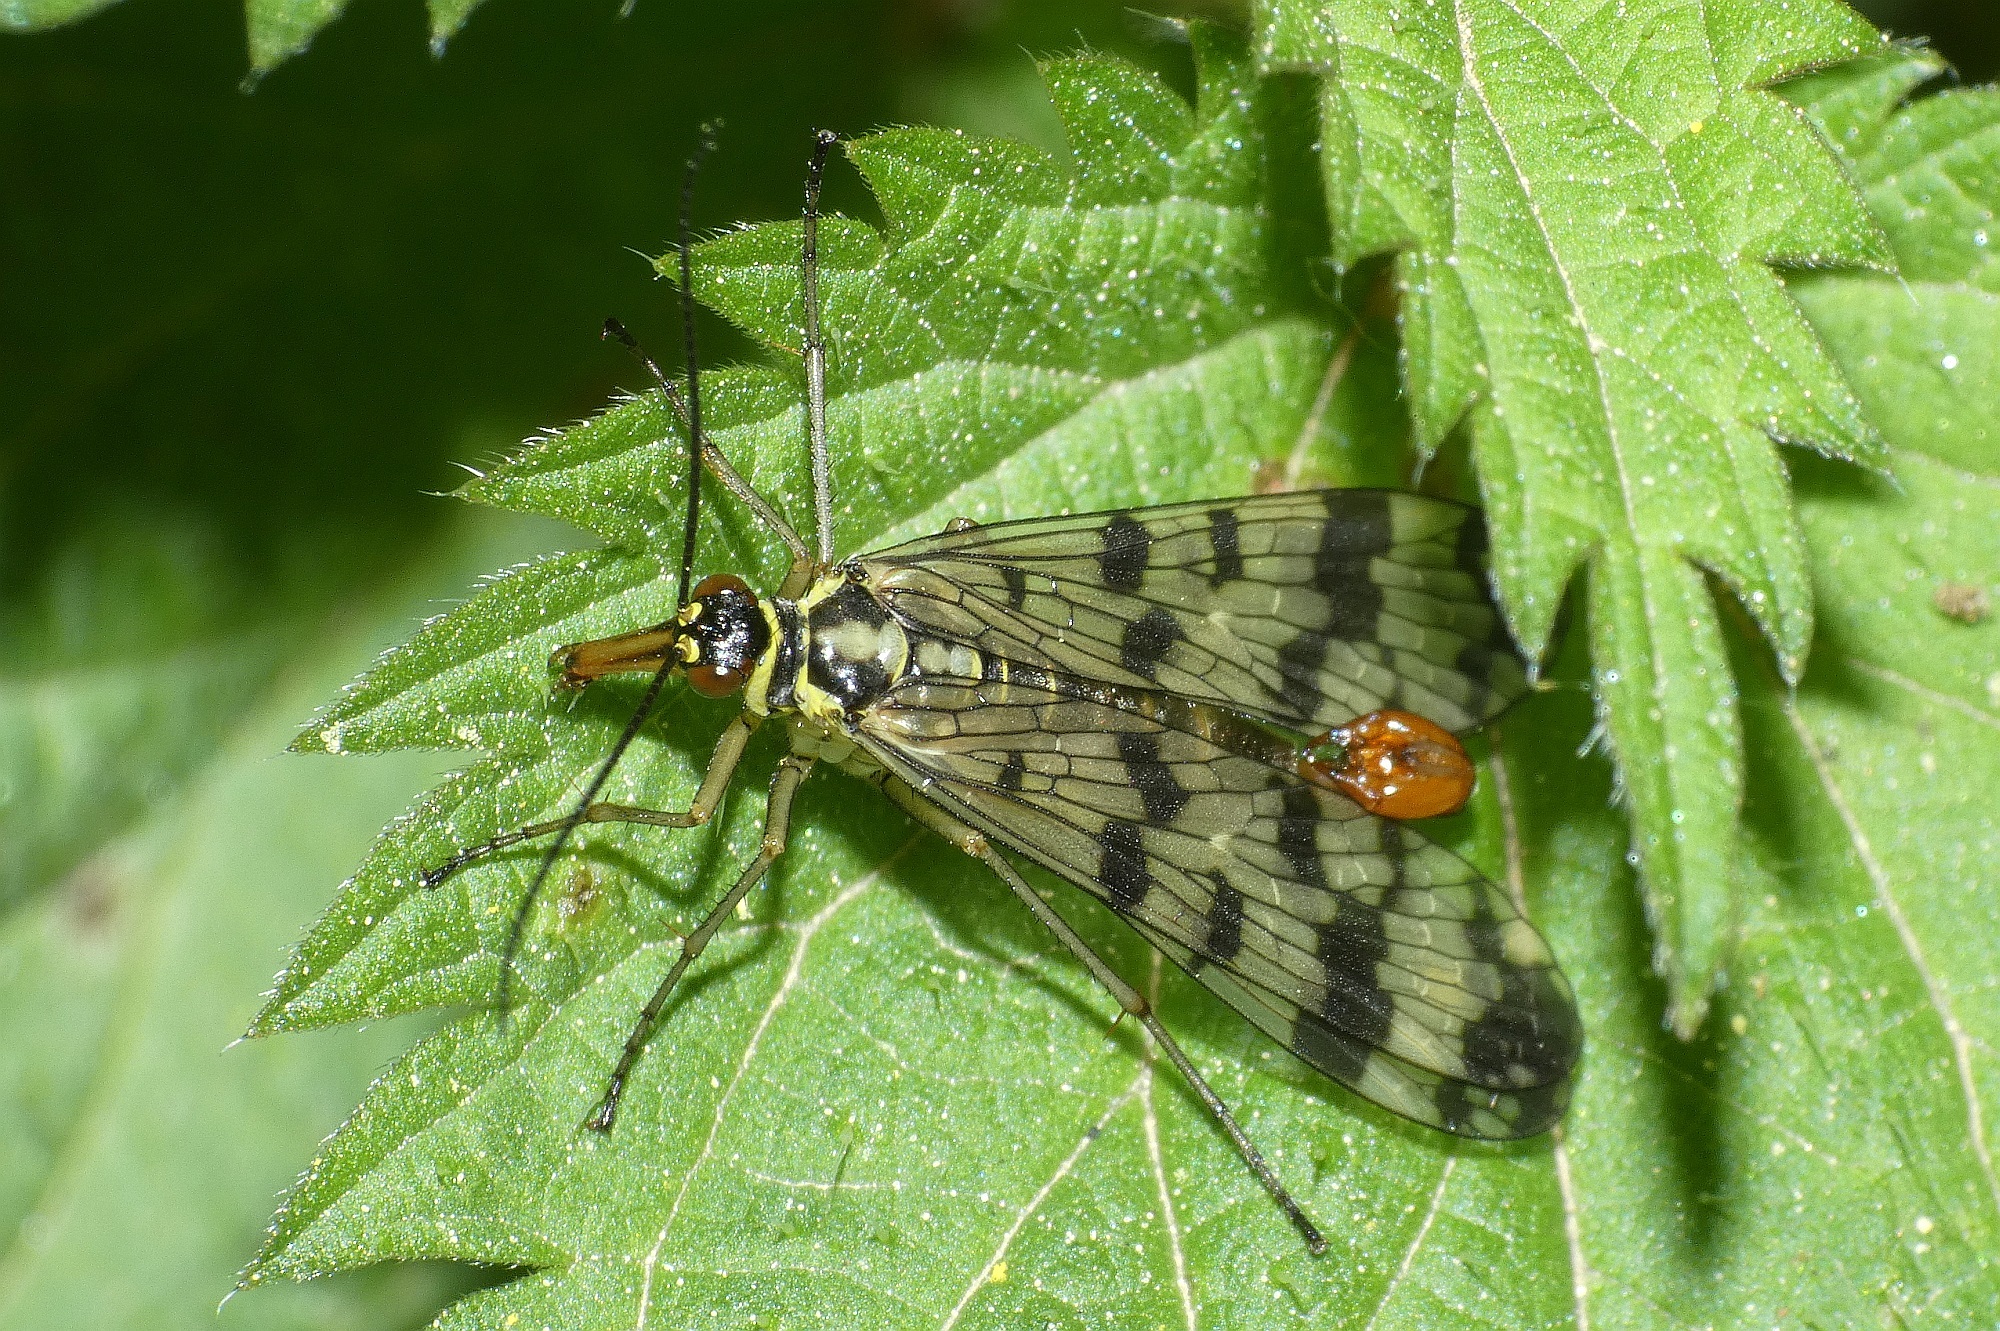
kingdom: Animalia
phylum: Arthropoda
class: Insecta
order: Mecoptera
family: Panorpidae
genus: Panorpa
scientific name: Panorpa communis
